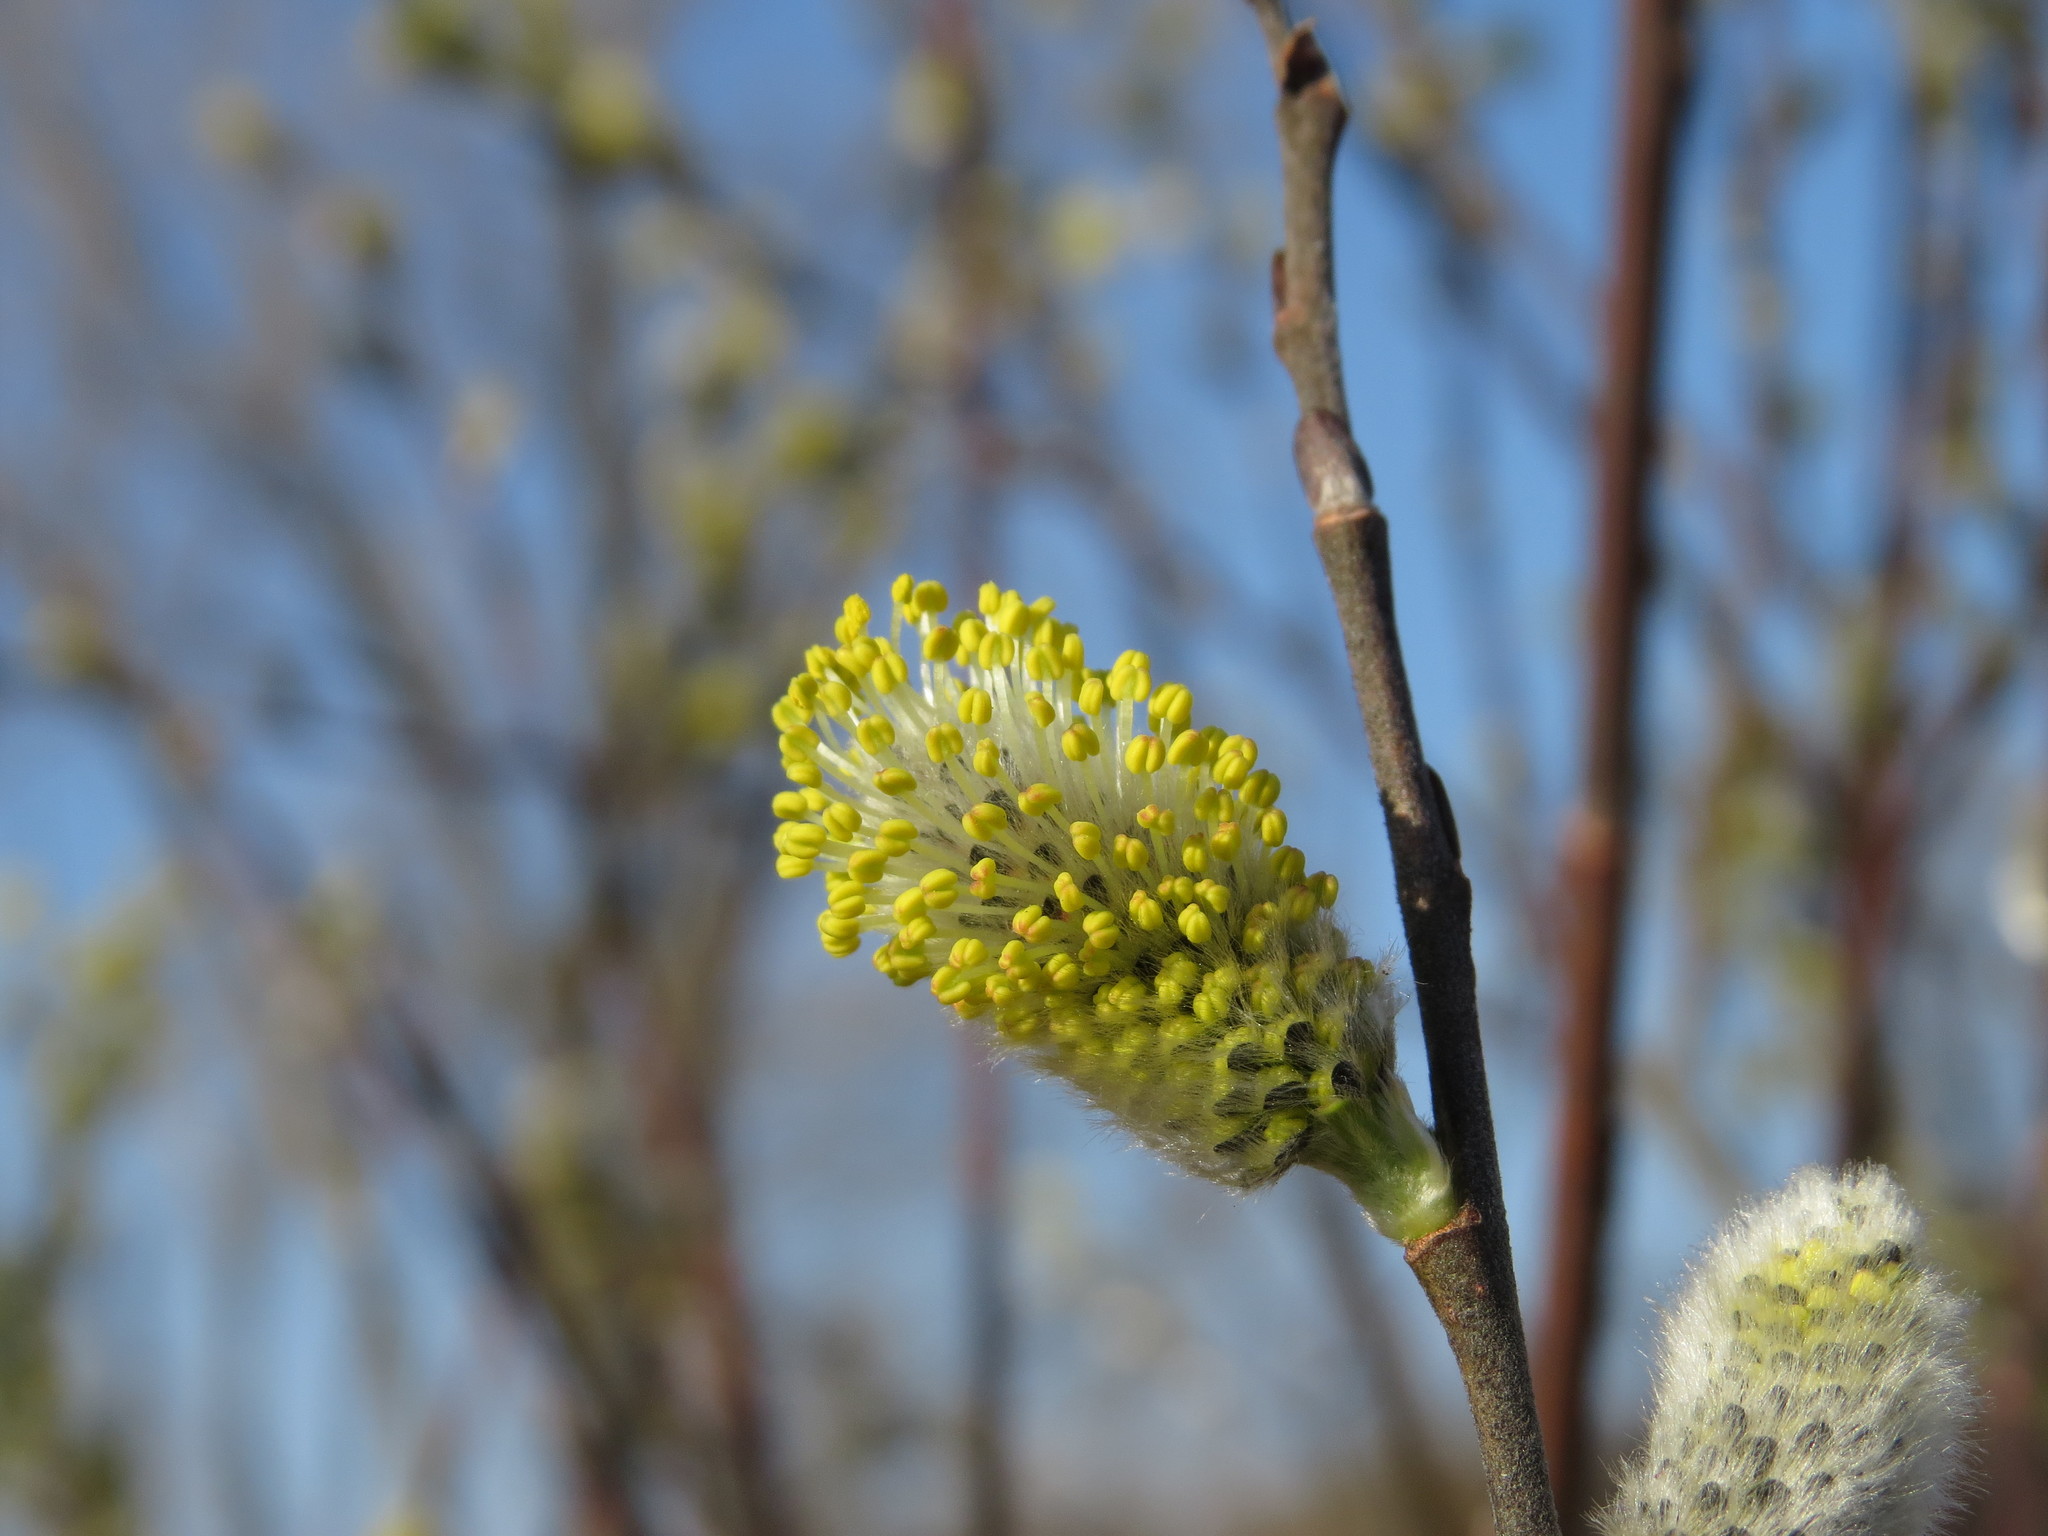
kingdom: Plantae
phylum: Tracheophyta
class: Magnoliopsida
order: Malpighiales
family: Salicaceae
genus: Salix
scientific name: Salix discolor
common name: Glaucous willow
